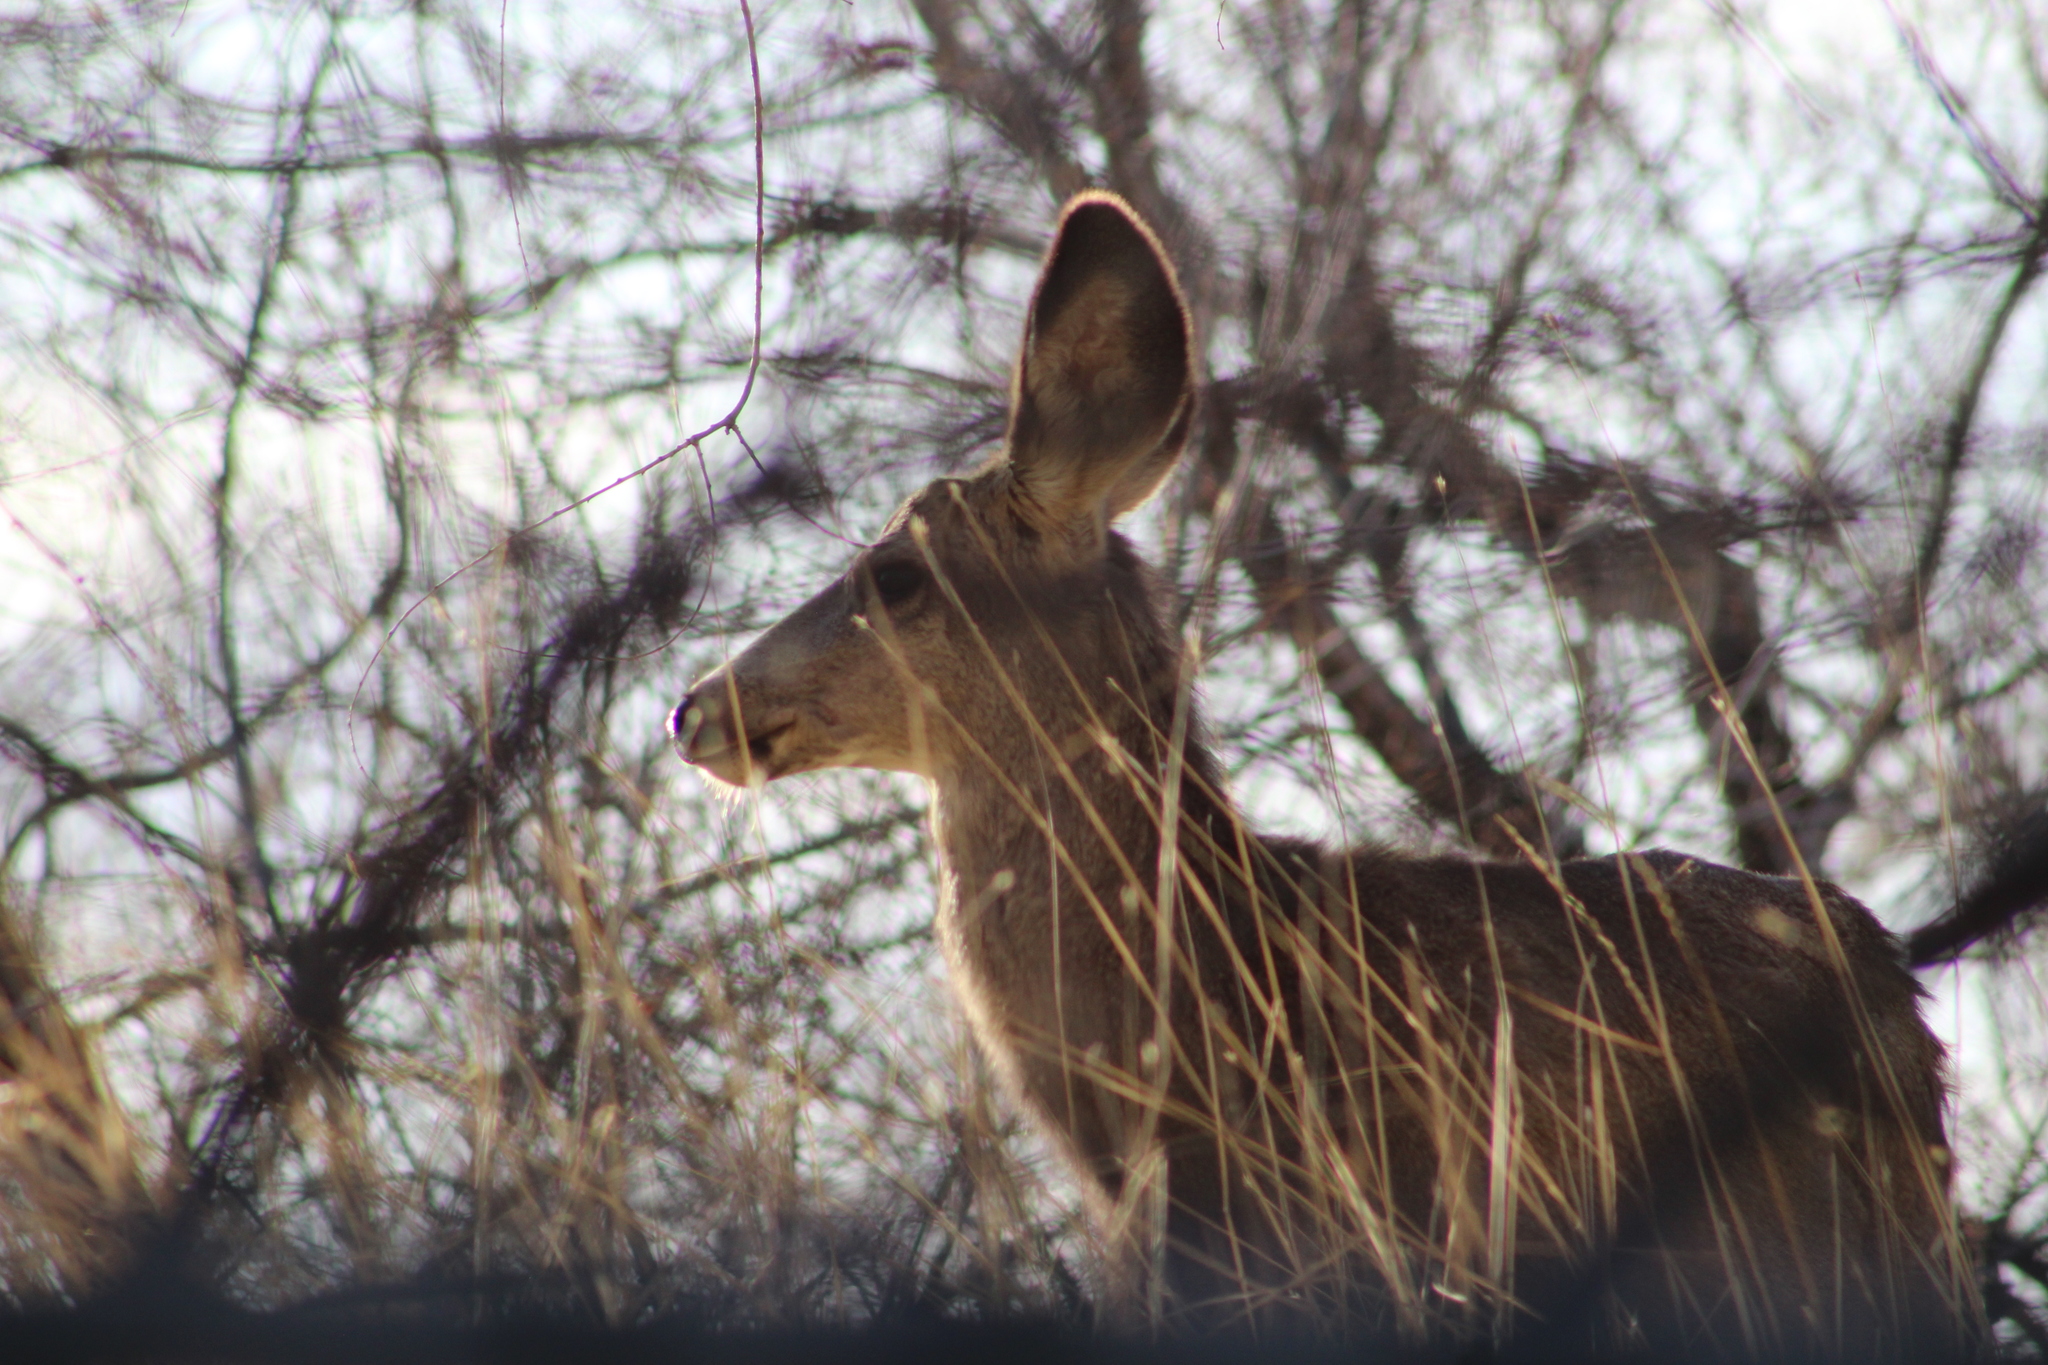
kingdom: Animalia
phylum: Chordata
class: Mammalia
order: Artiodactyla
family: Cervidae
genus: Odocoileus
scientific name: Odocoileus hemionus
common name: Mule deer
